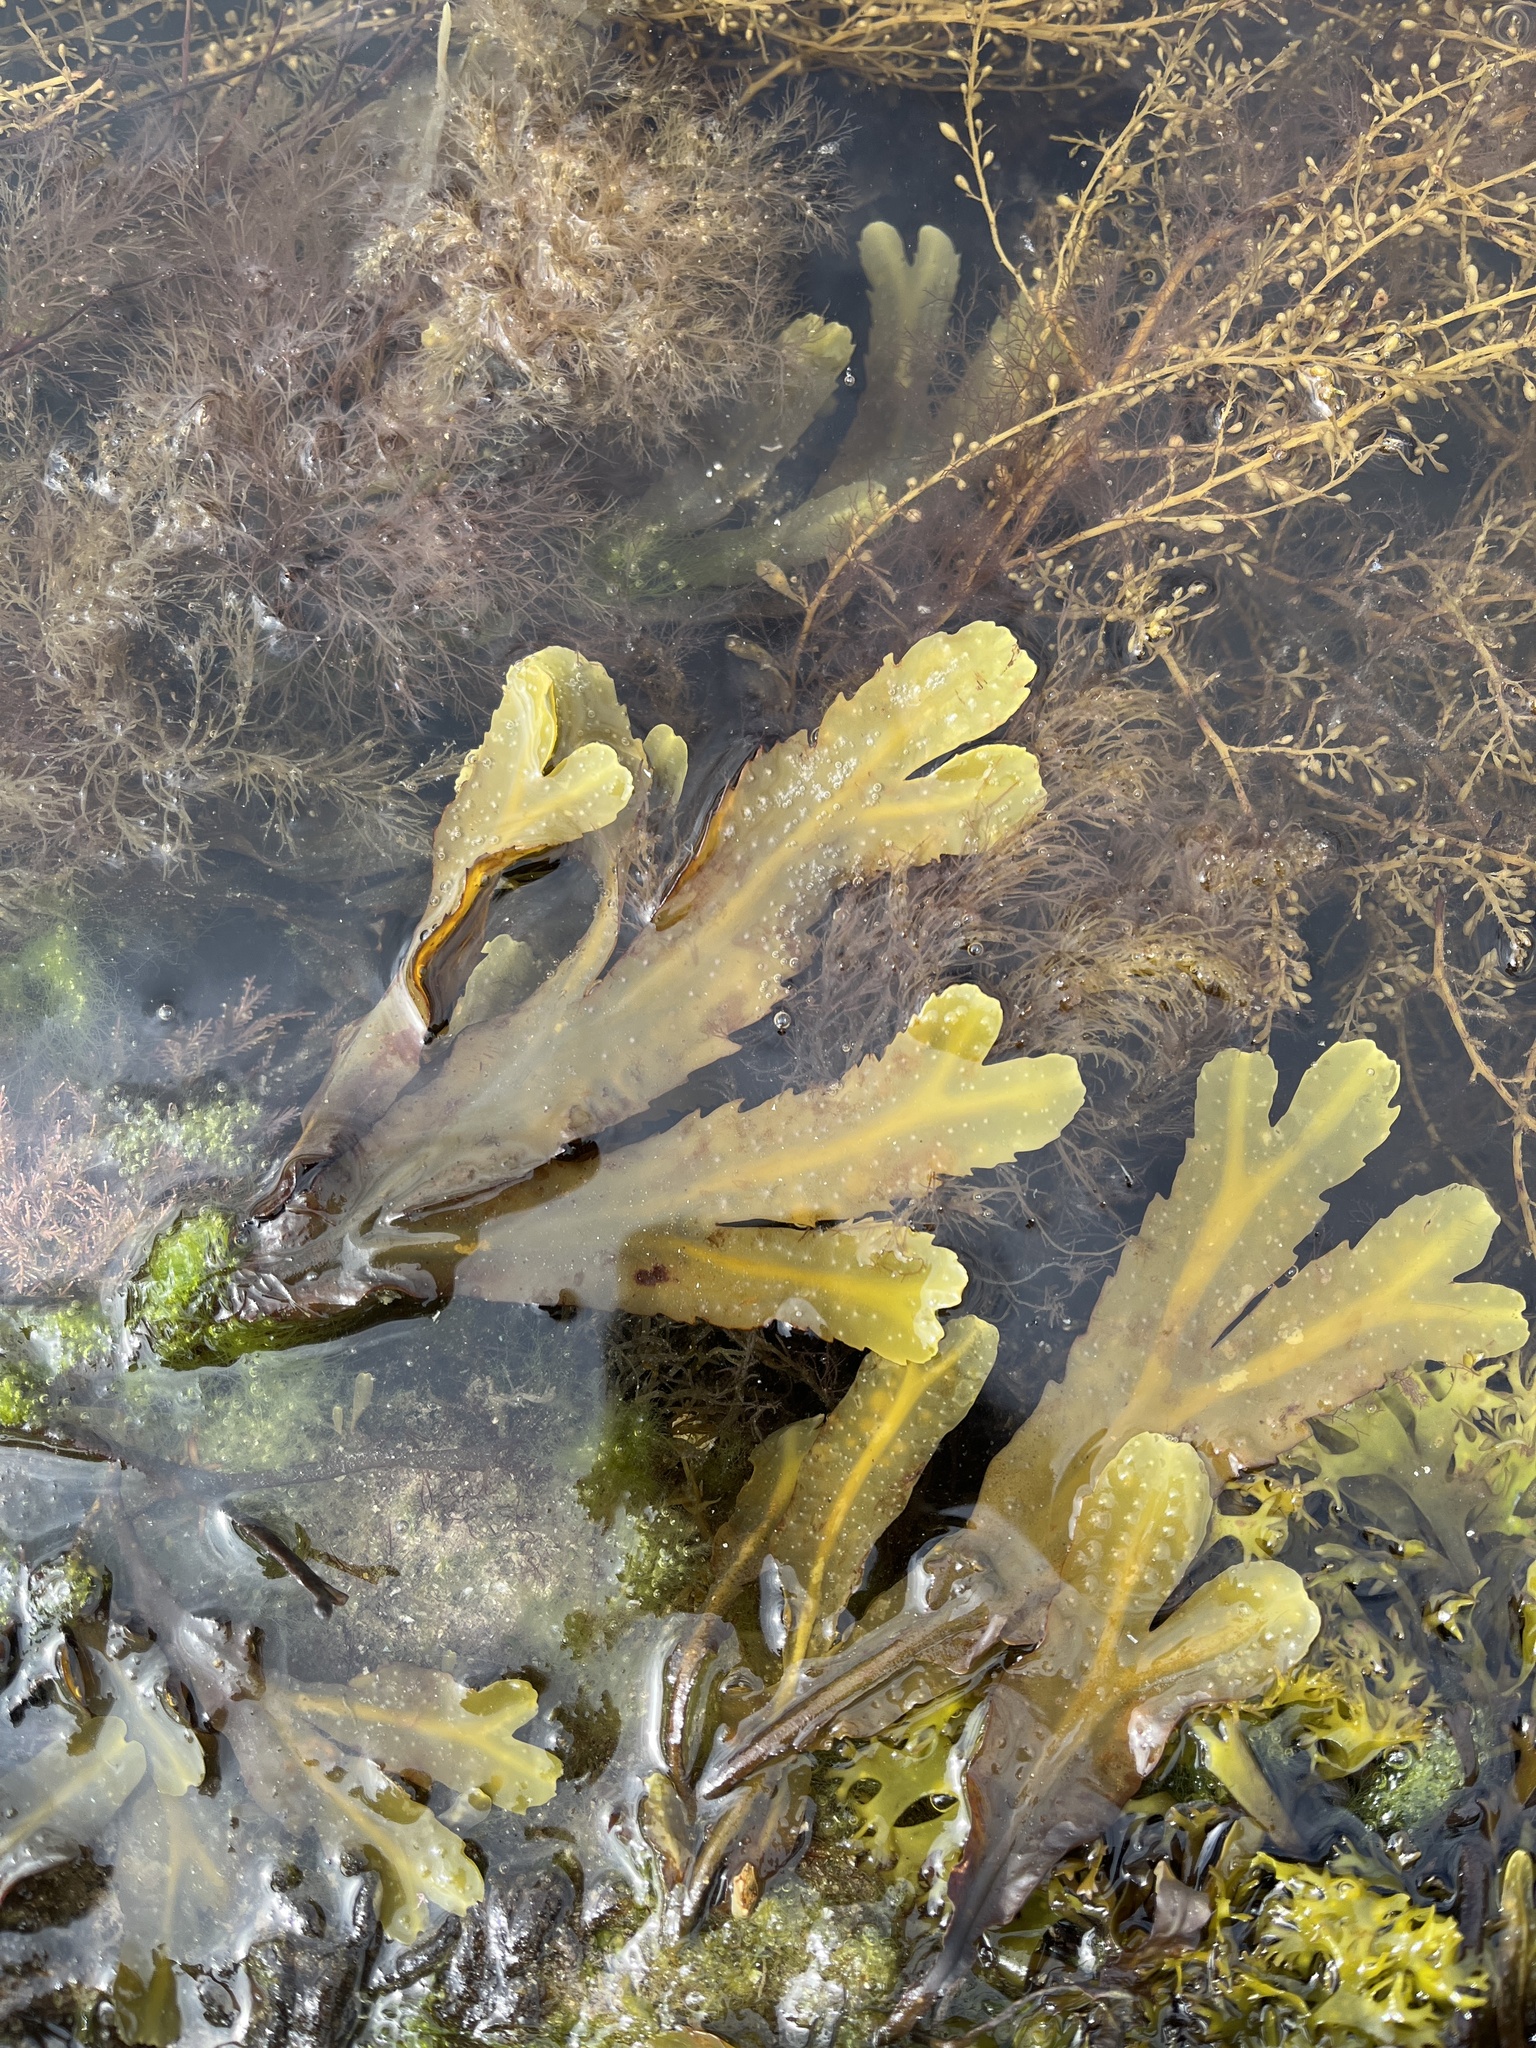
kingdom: Chromista
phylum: Ochrophyta
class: Phaeophyceae
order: Fucales
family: Fucaceae
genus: Fucus
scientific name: Fucus serratus
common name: Toothed wrack
